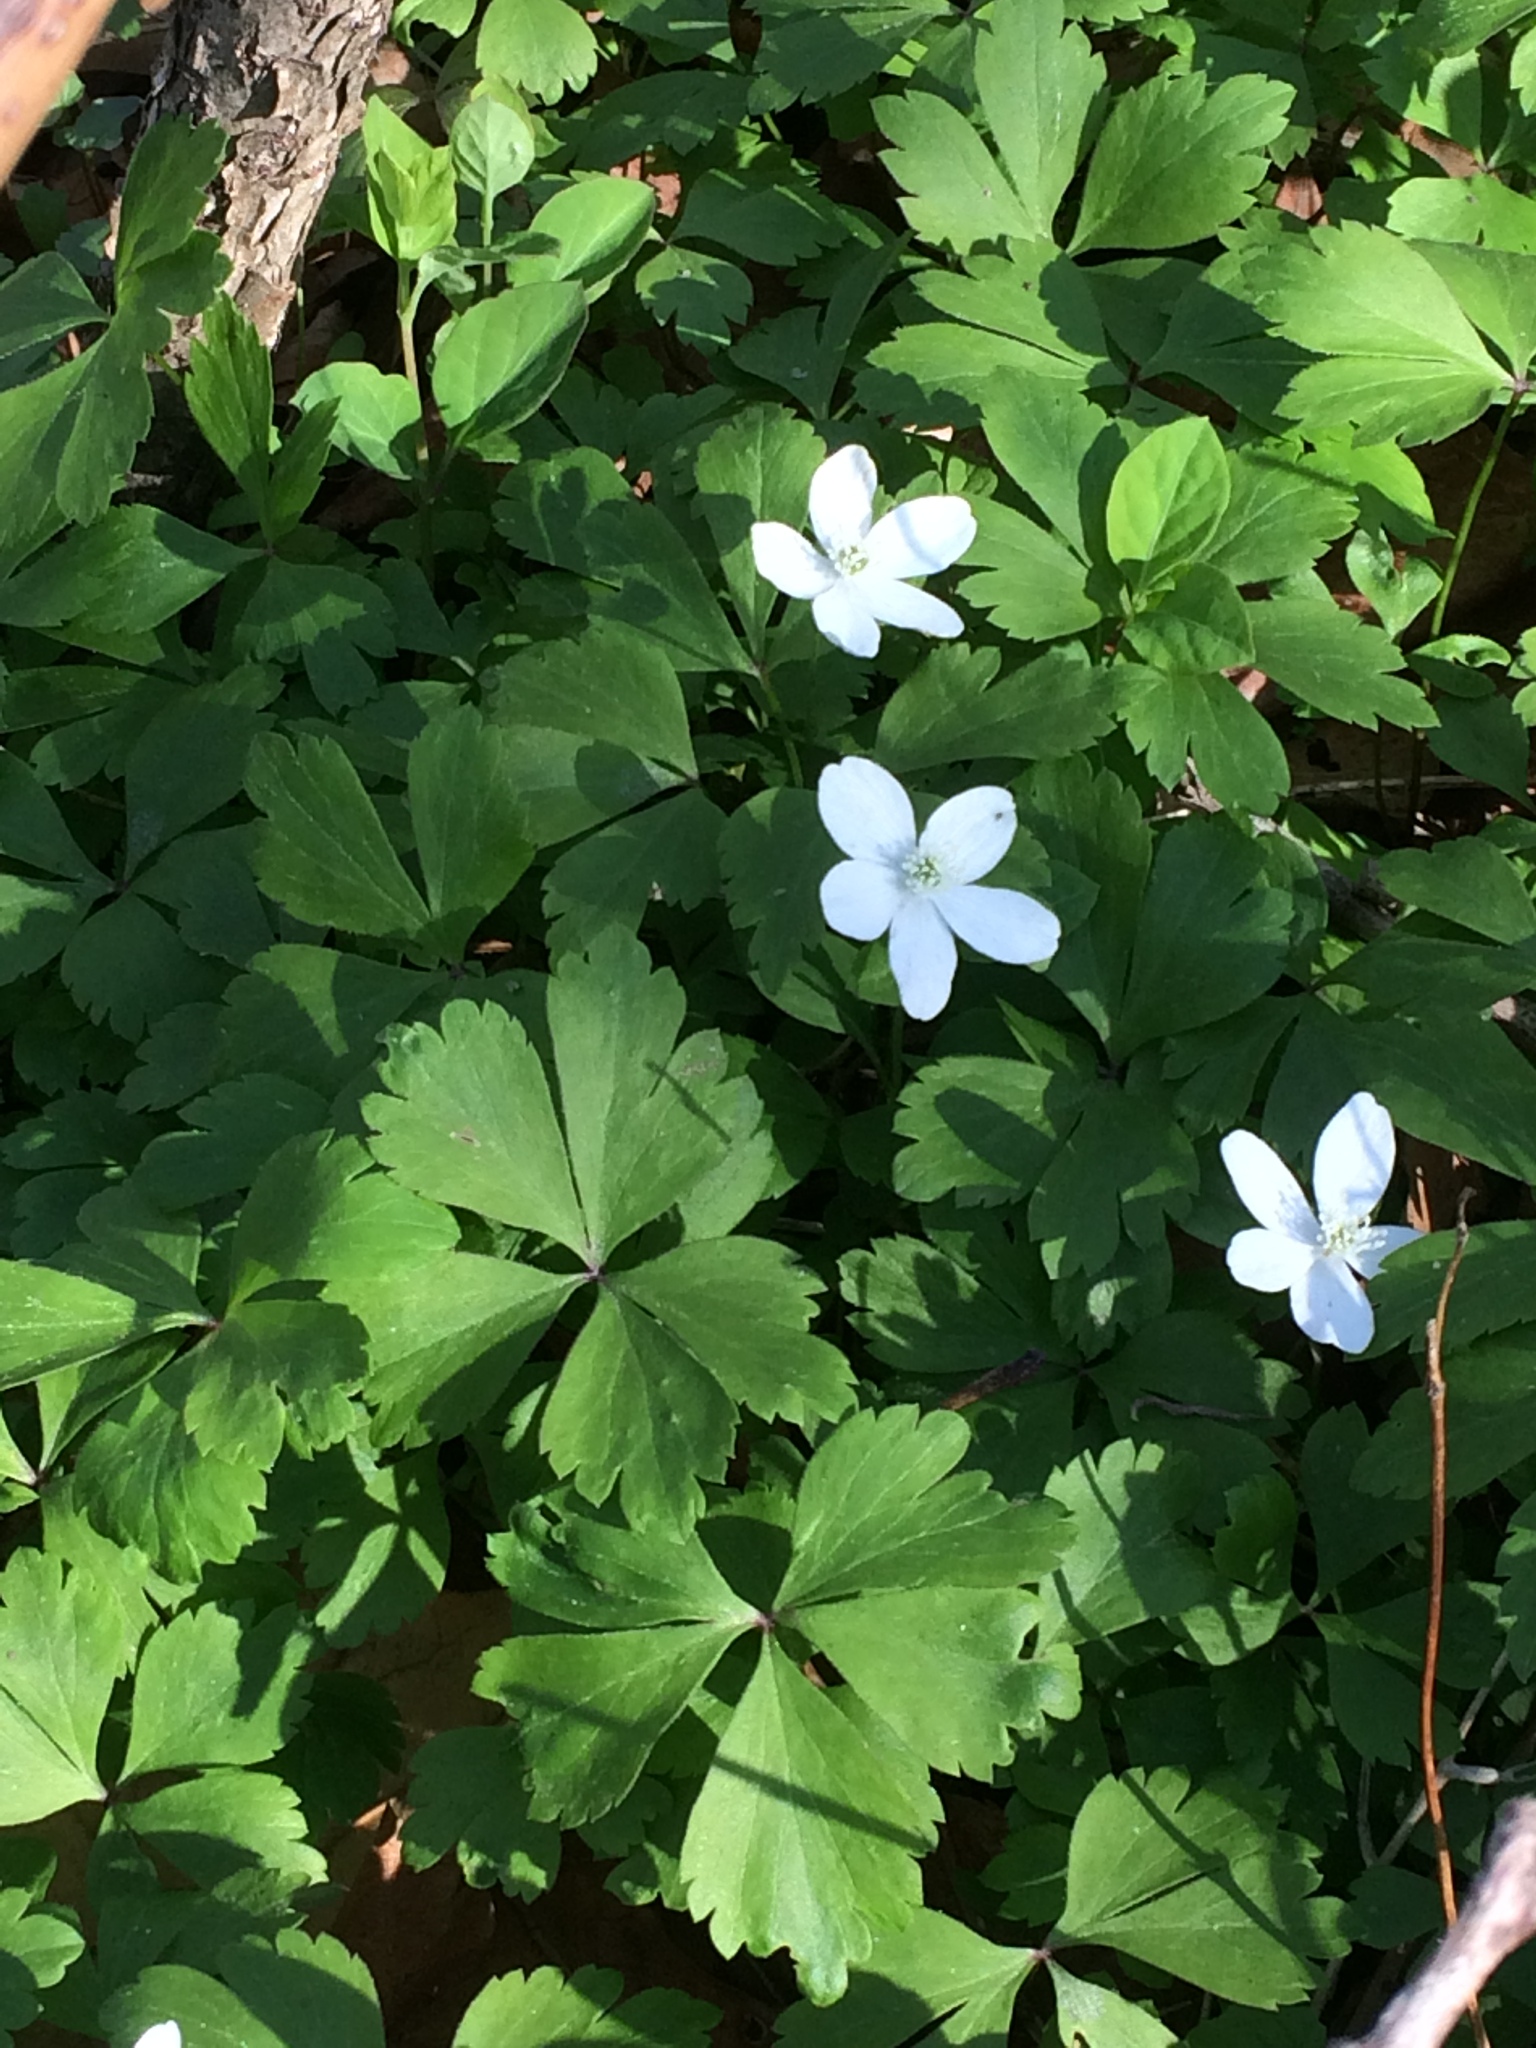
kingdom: Plantae
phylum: Tracheophyta
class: Magnoliopsida
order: Ranunculales
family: Ranunculaceae
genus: Anemone
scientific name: Anemone quinquefolia
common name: Wood anemone
